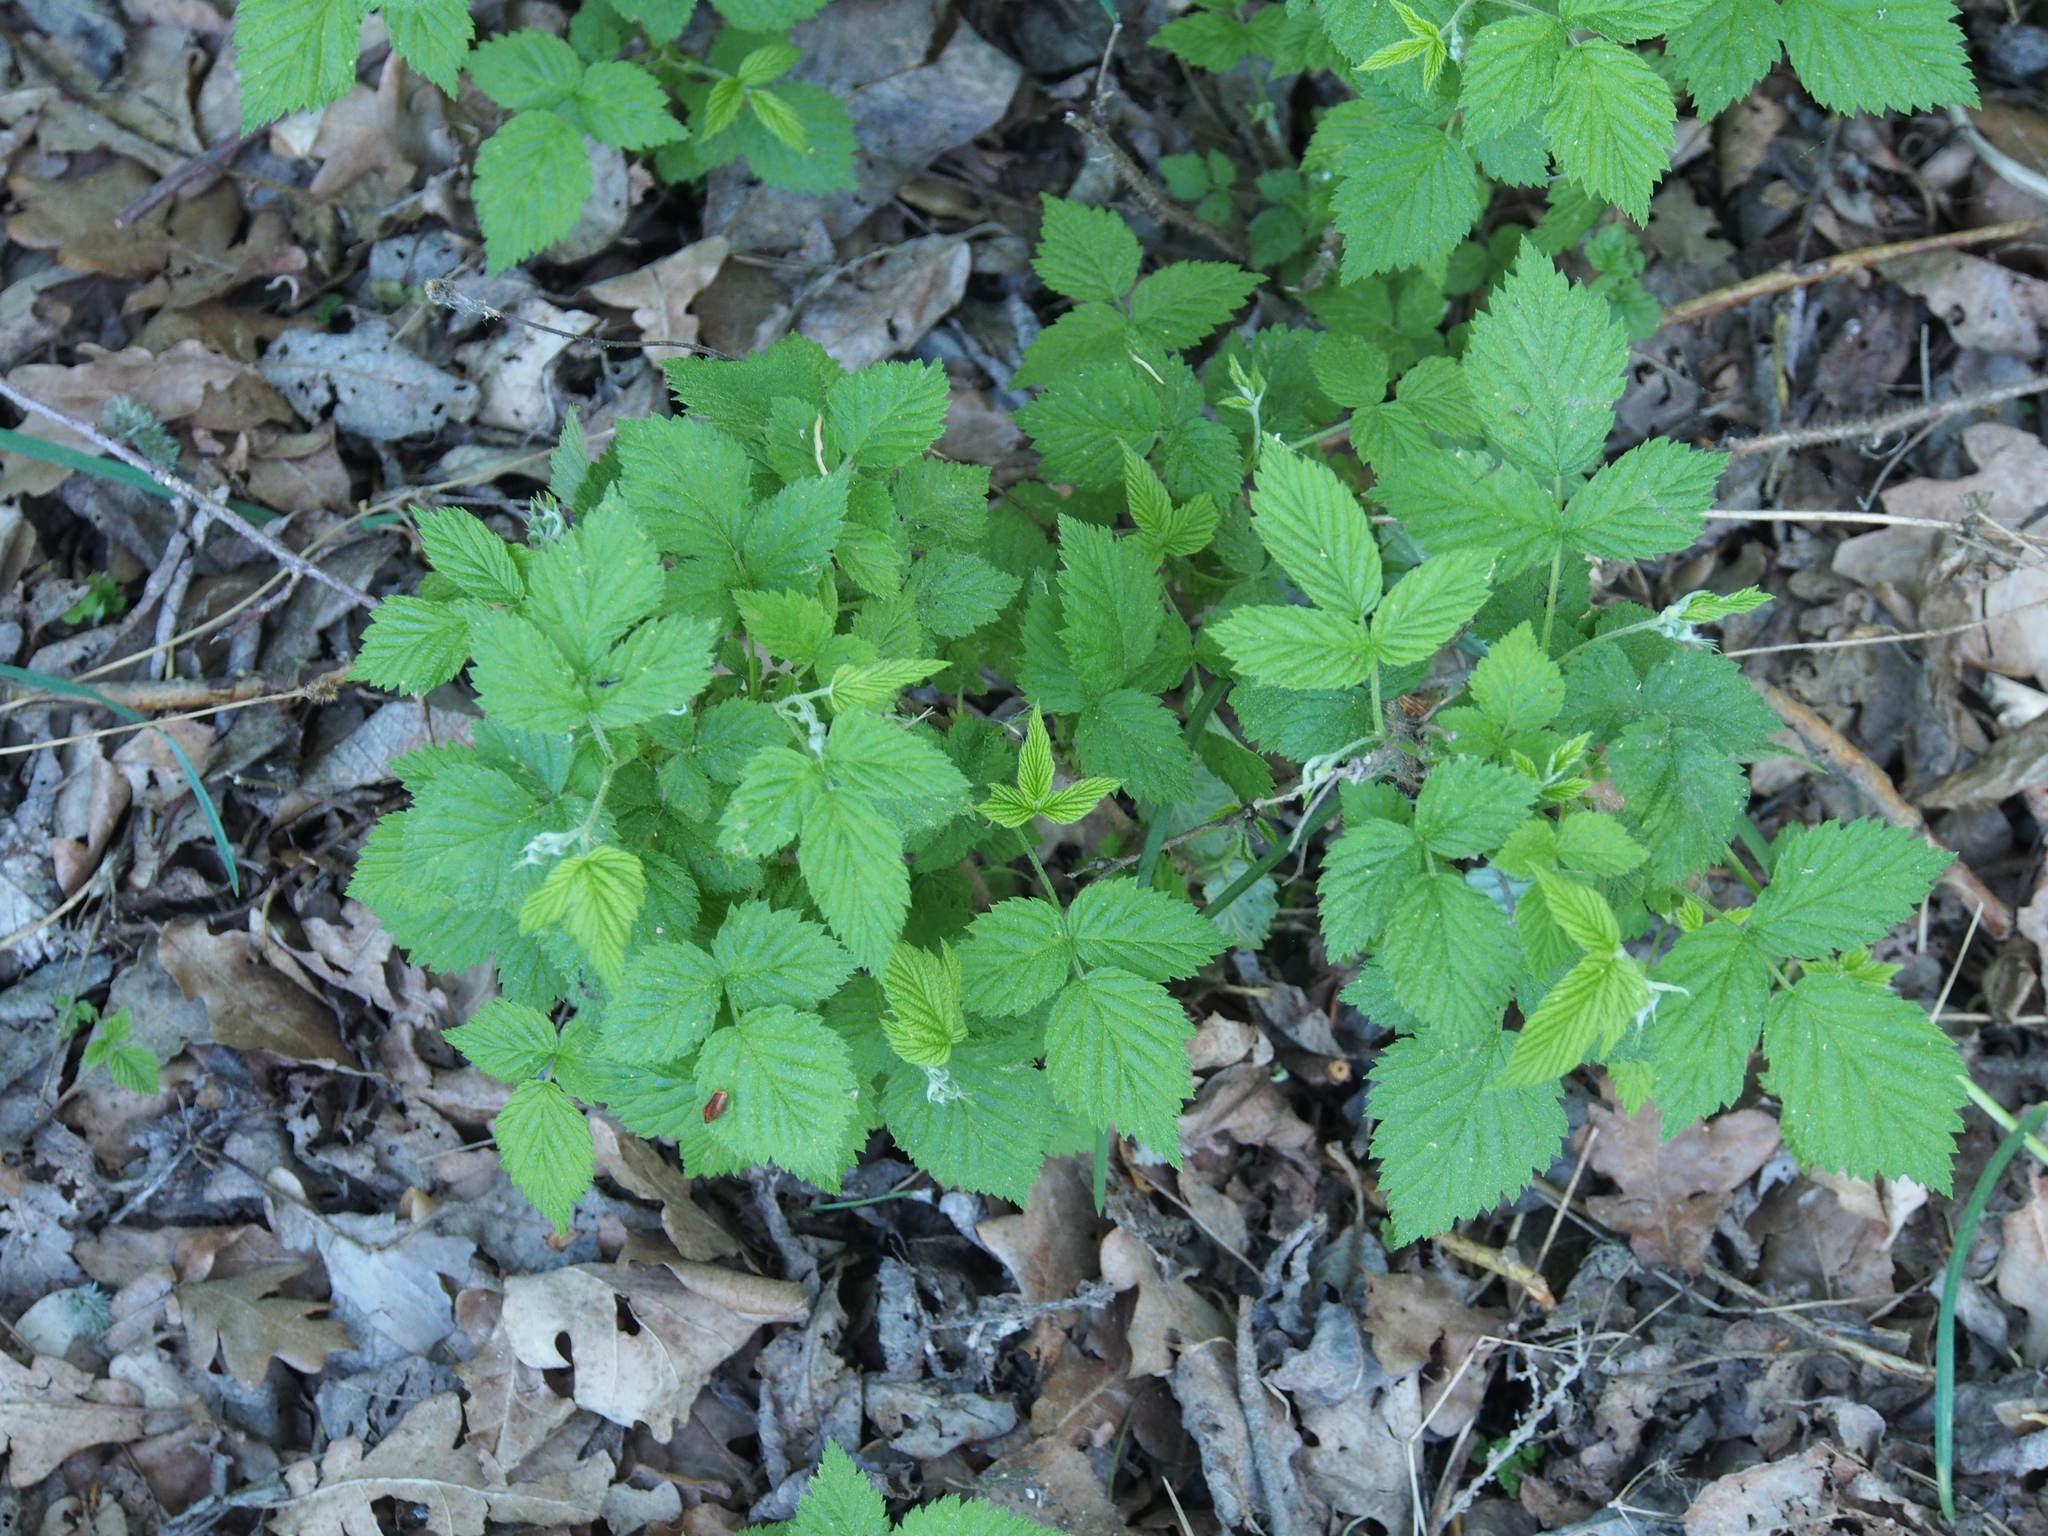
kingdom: Plantae
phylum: Tracheophyta
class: Magnoliopsida
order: Rosales
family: Rosaceae
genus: Rubus
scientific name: Rubus idaeus
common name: Raspberry
